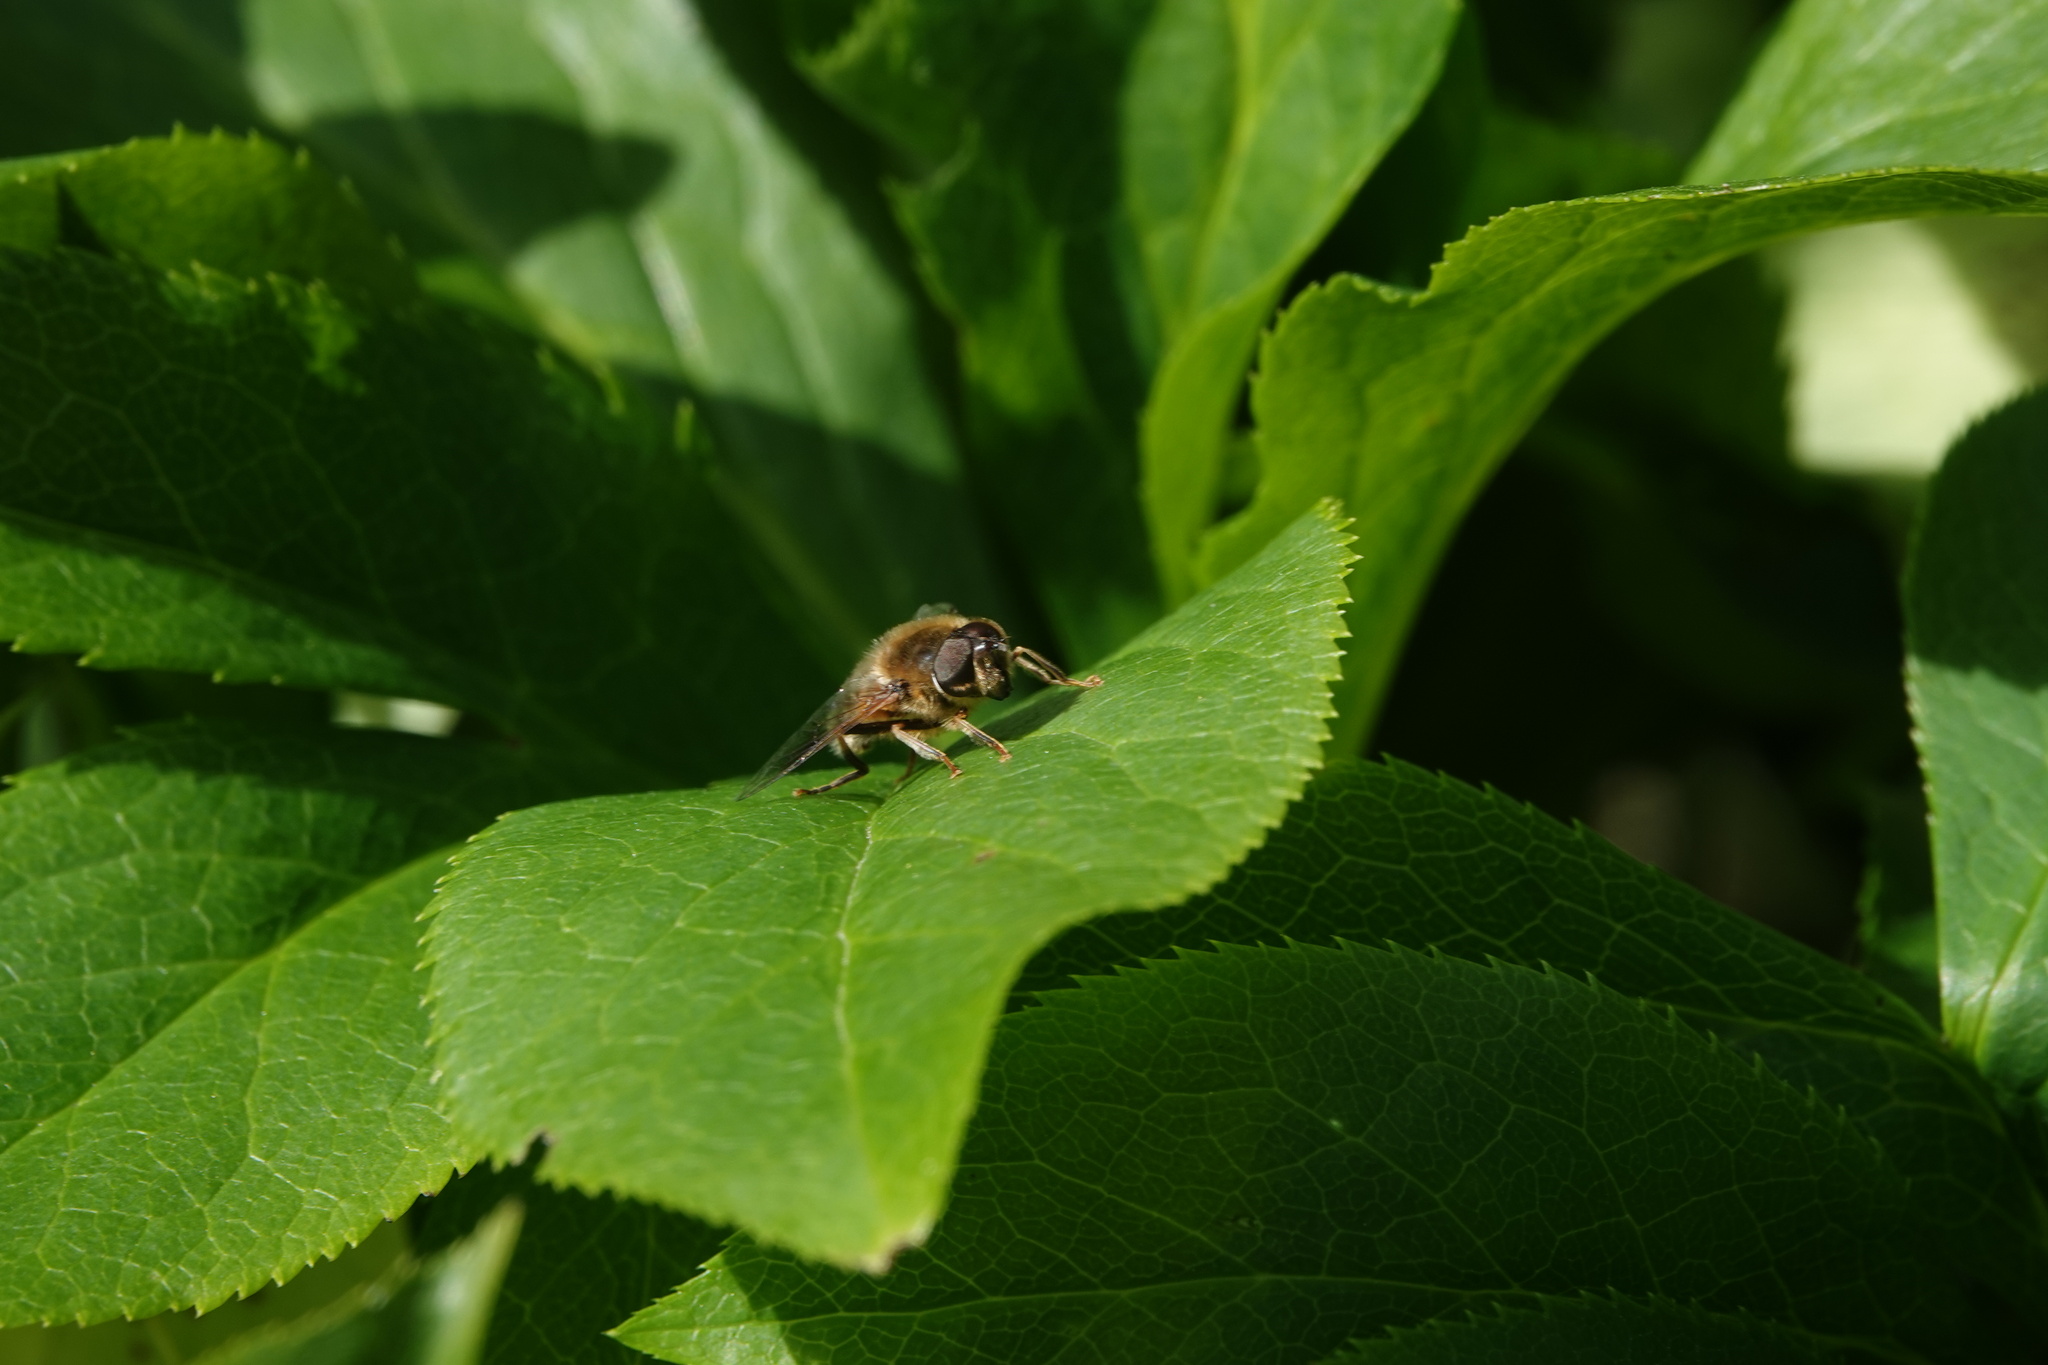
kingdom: Animalia
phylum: Arthropoda
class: Insecta
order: Diptera
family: Syrphidae
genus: Eristalis
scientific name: Eristalis pertinax
